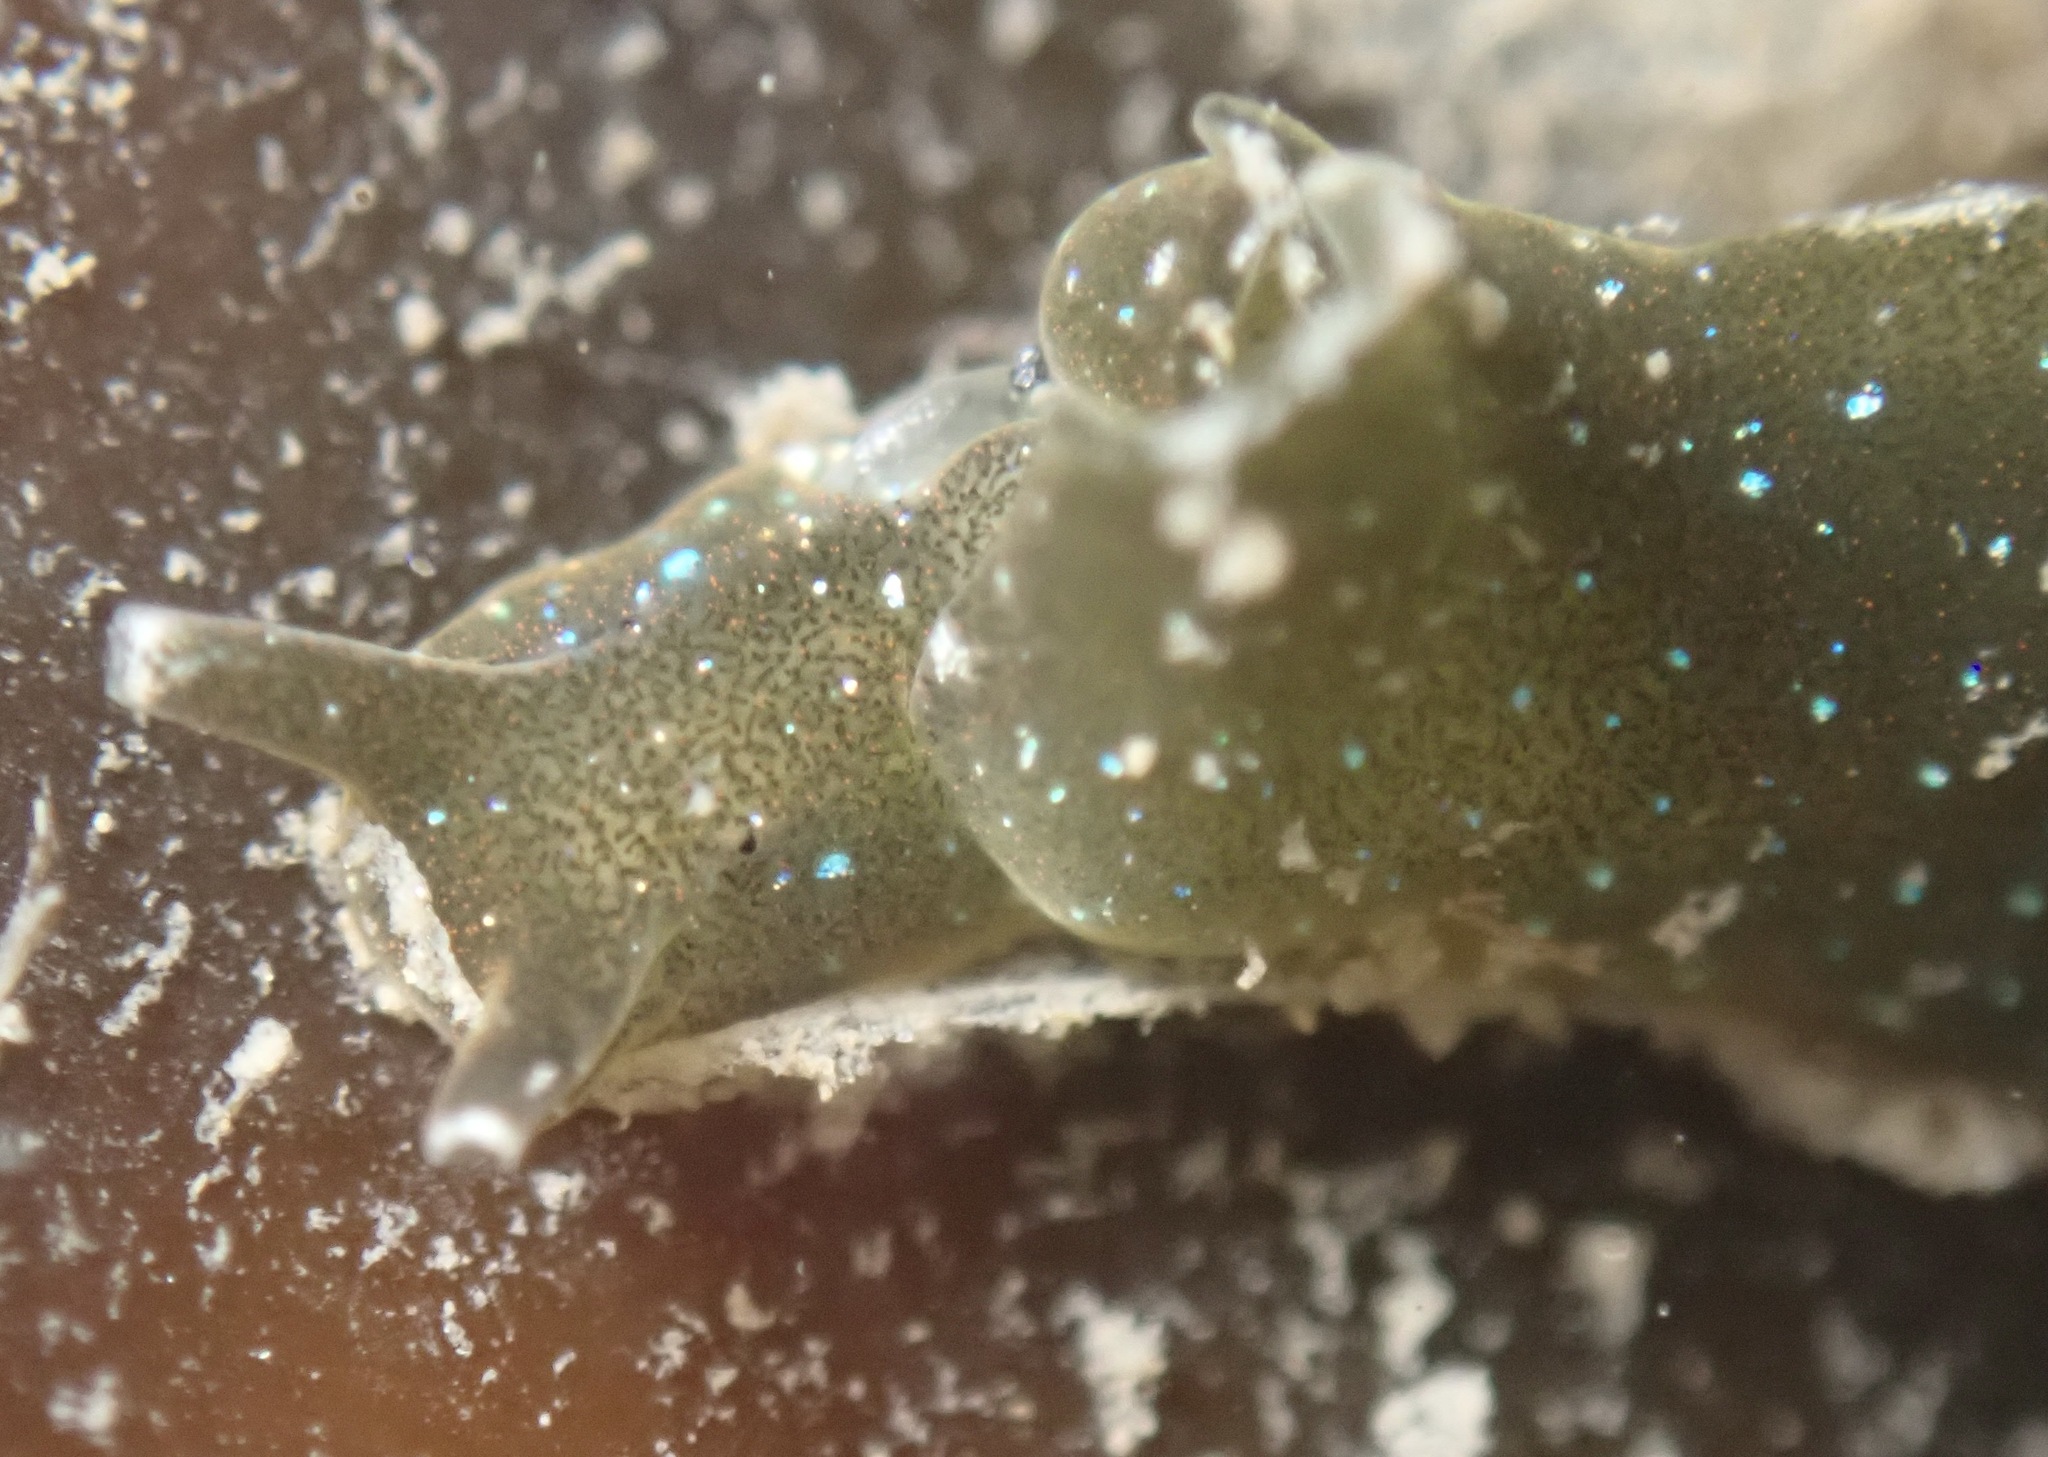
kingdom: Animalia
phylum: Mollusca
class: Gastropoda
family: Plakobranchidae
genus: Elysia
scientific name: Elysia hedgpethi
